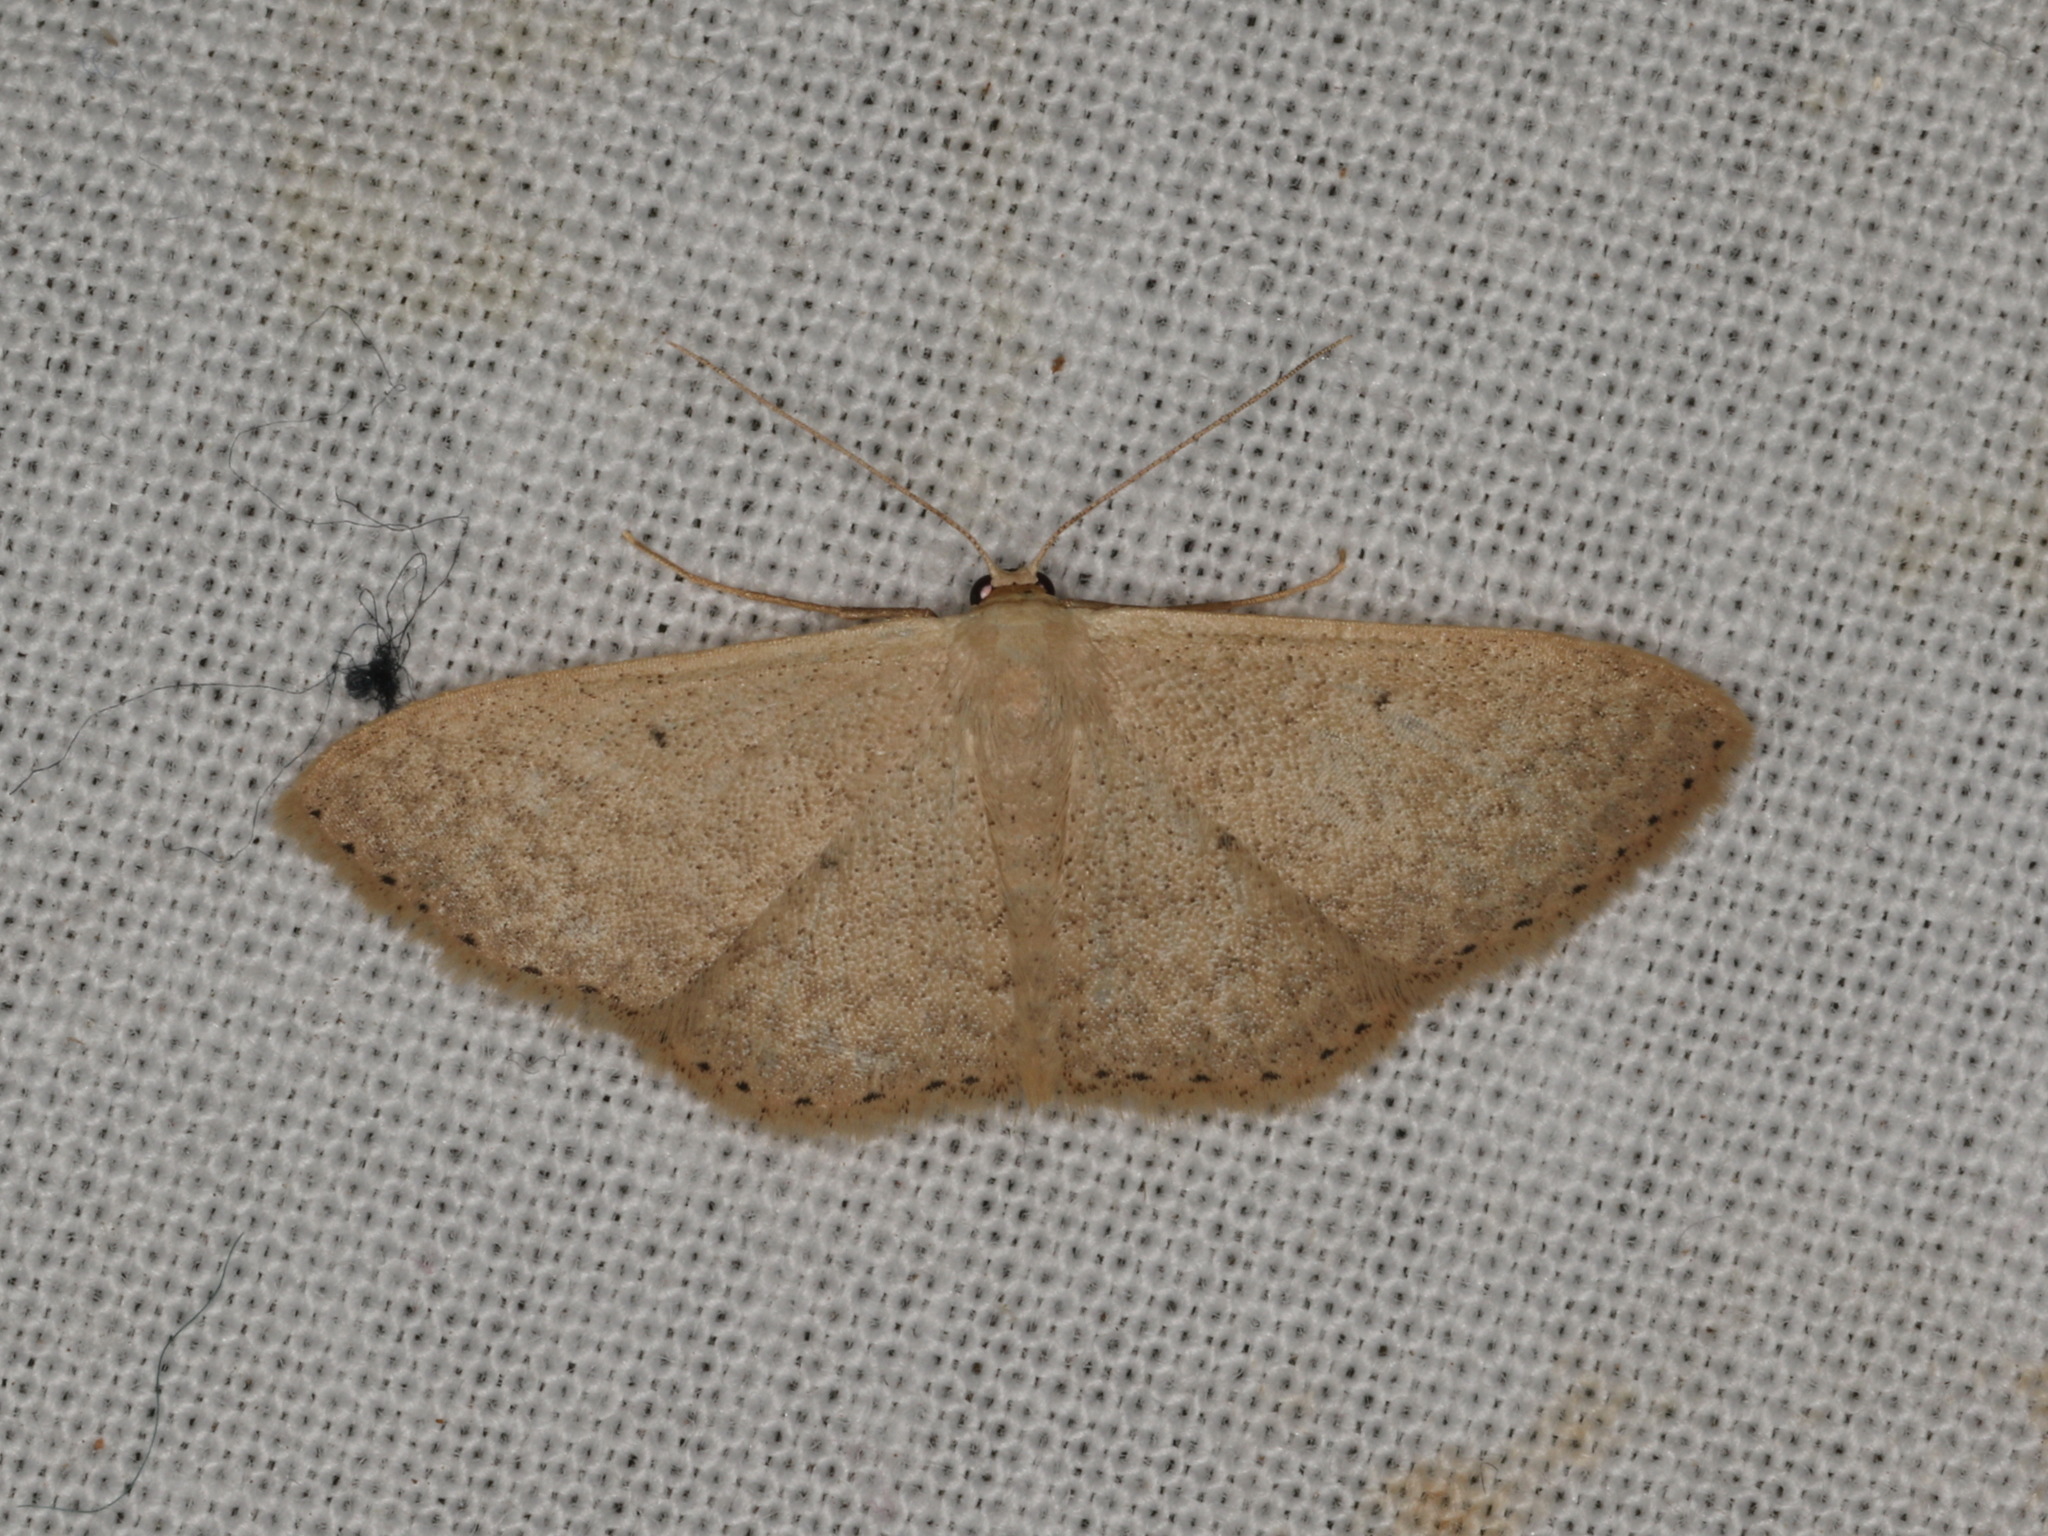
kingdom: Animalia
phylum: Arthropoda
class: Insecta
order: Lepidoptera
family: Geometridae
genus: Scopula
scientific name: Scopula optivata
